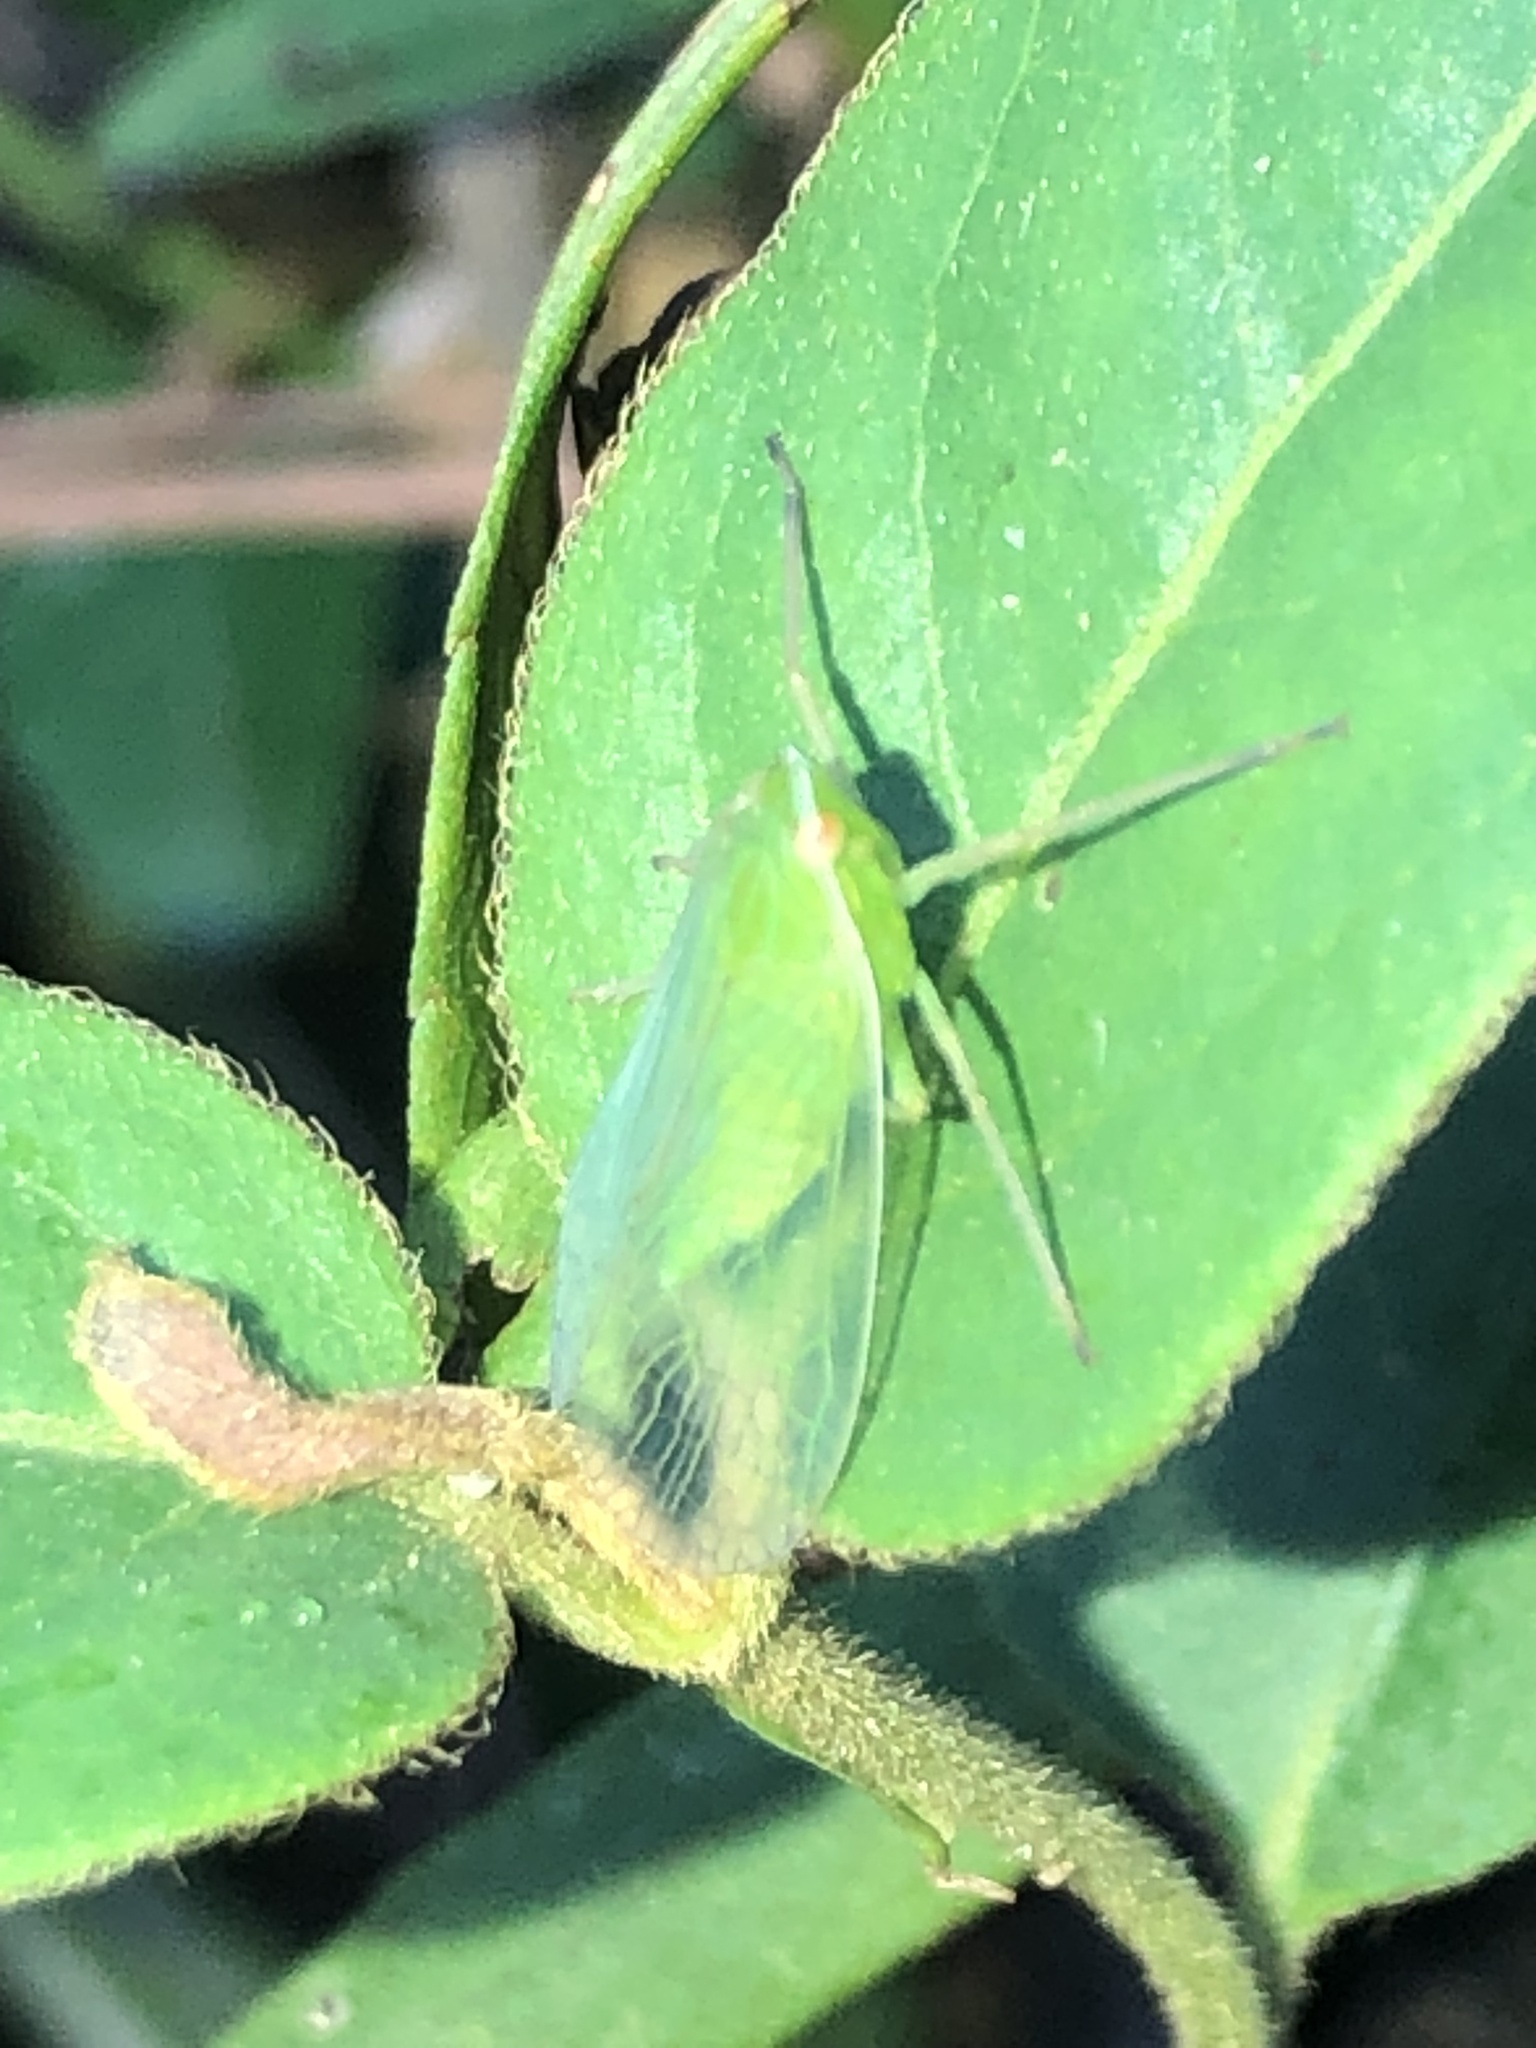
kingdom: Animalia
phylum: Arthropoda
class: Insecta
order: Hemiptera
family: Dictyopharidae
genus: Nersia
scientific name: Nersia florida
